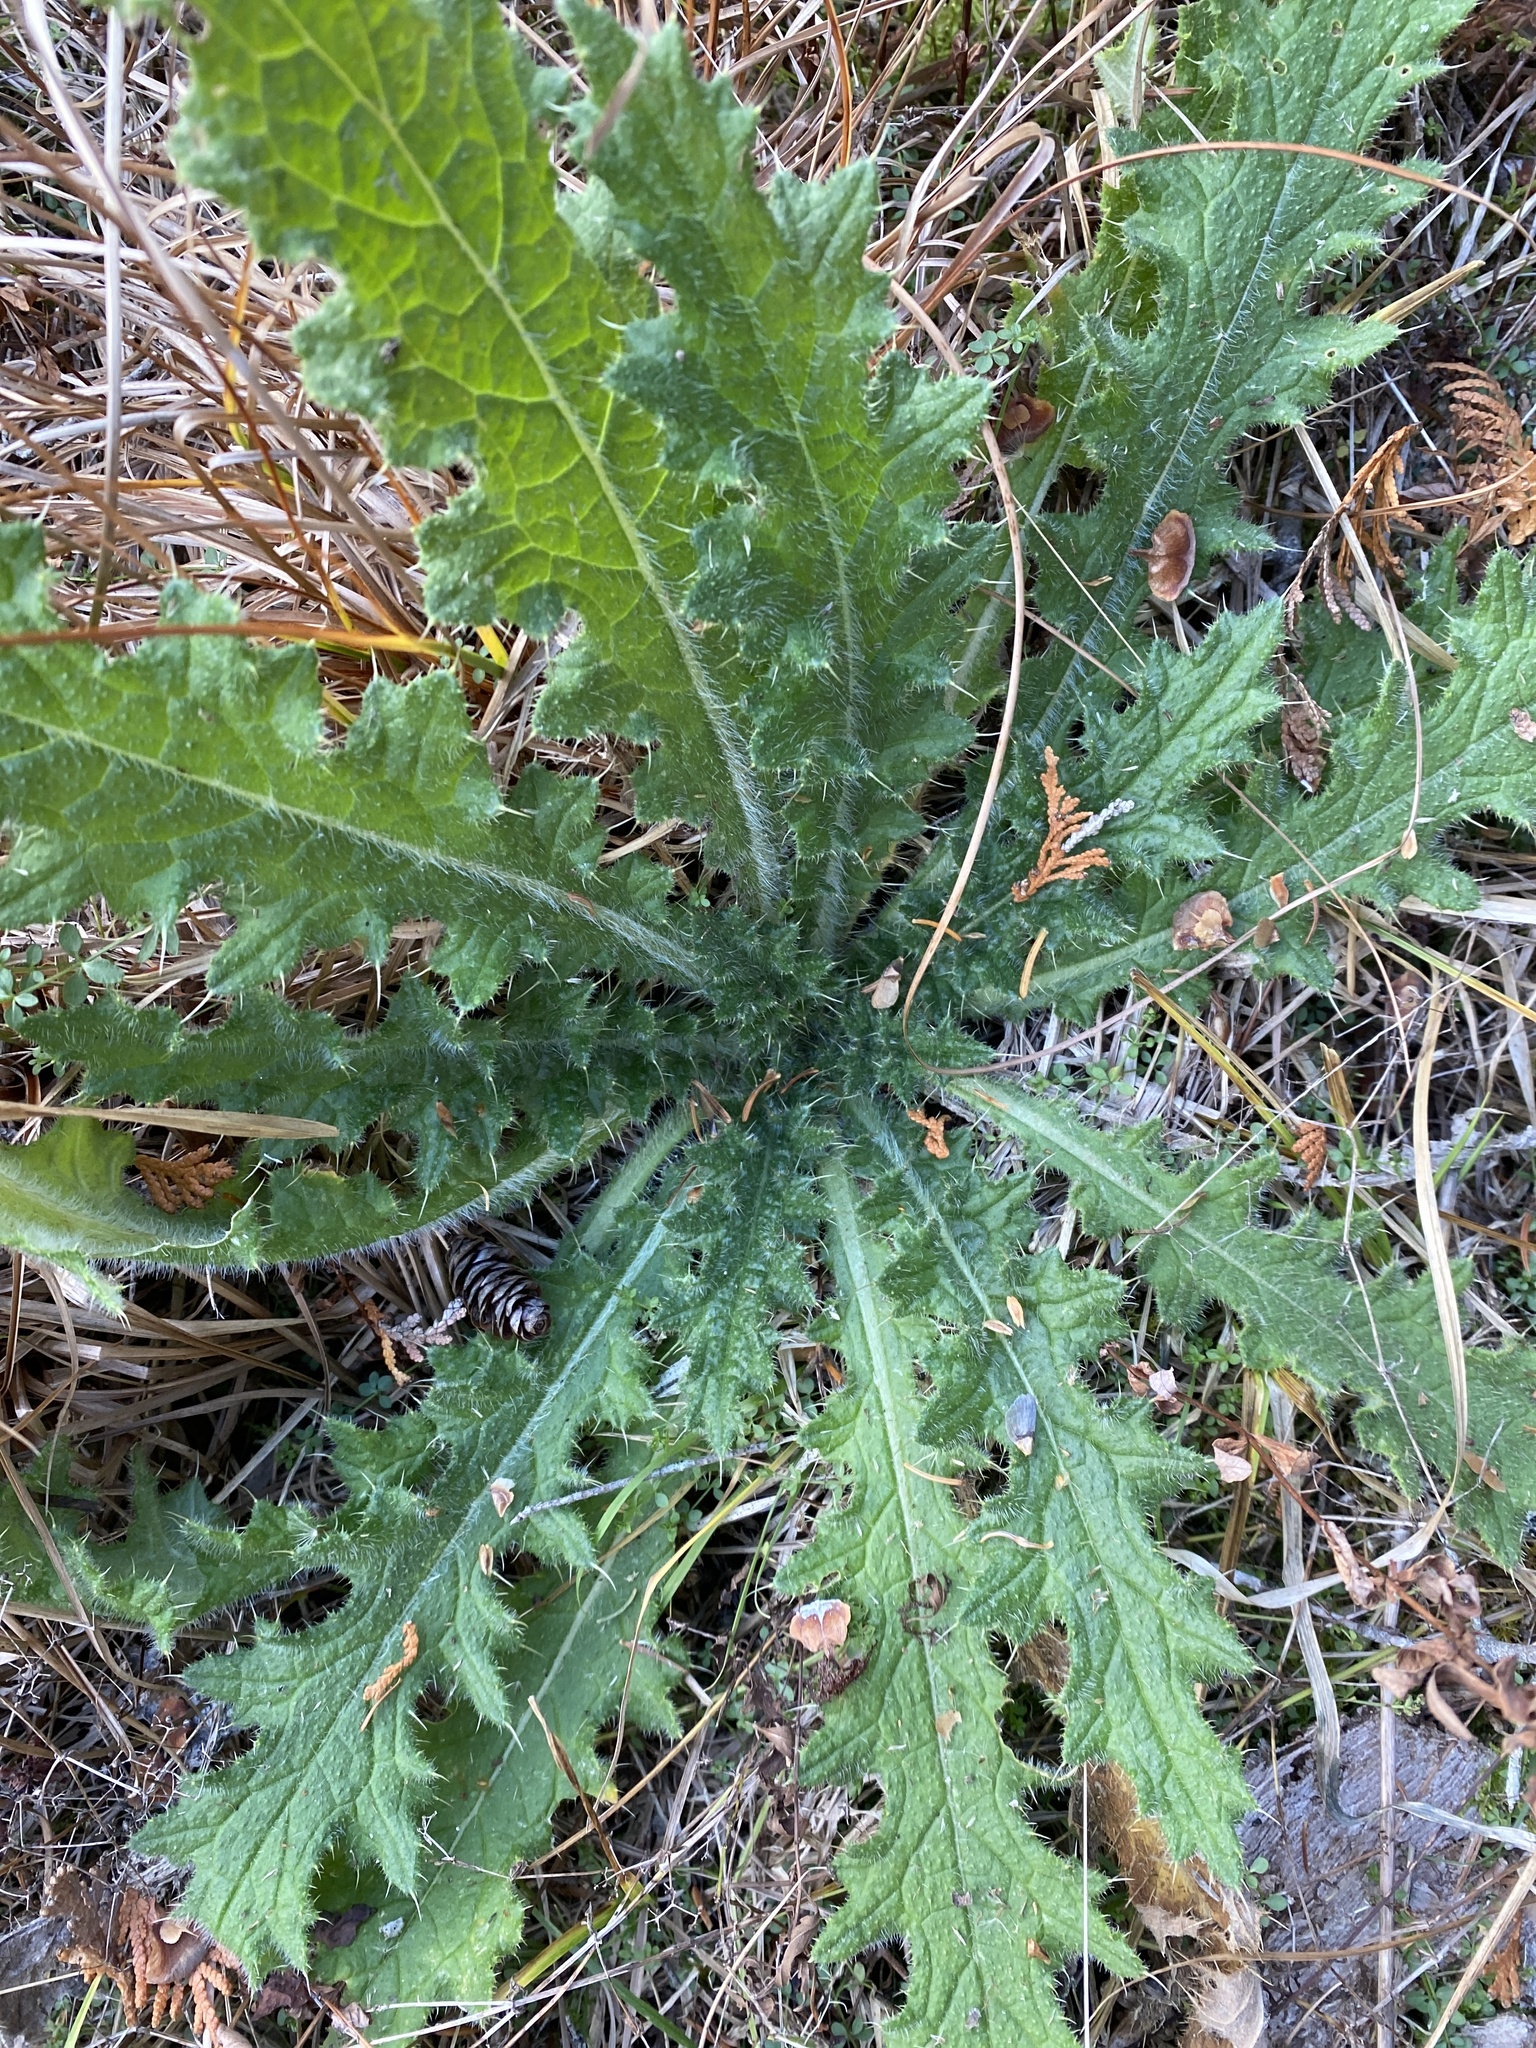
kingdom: Plantae
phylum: Tracheophyta
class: Magnoliopsida
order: Asterales
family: Asteraceae
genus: Cirsium
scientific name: Cirsium vulgare
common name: Bull thistle
